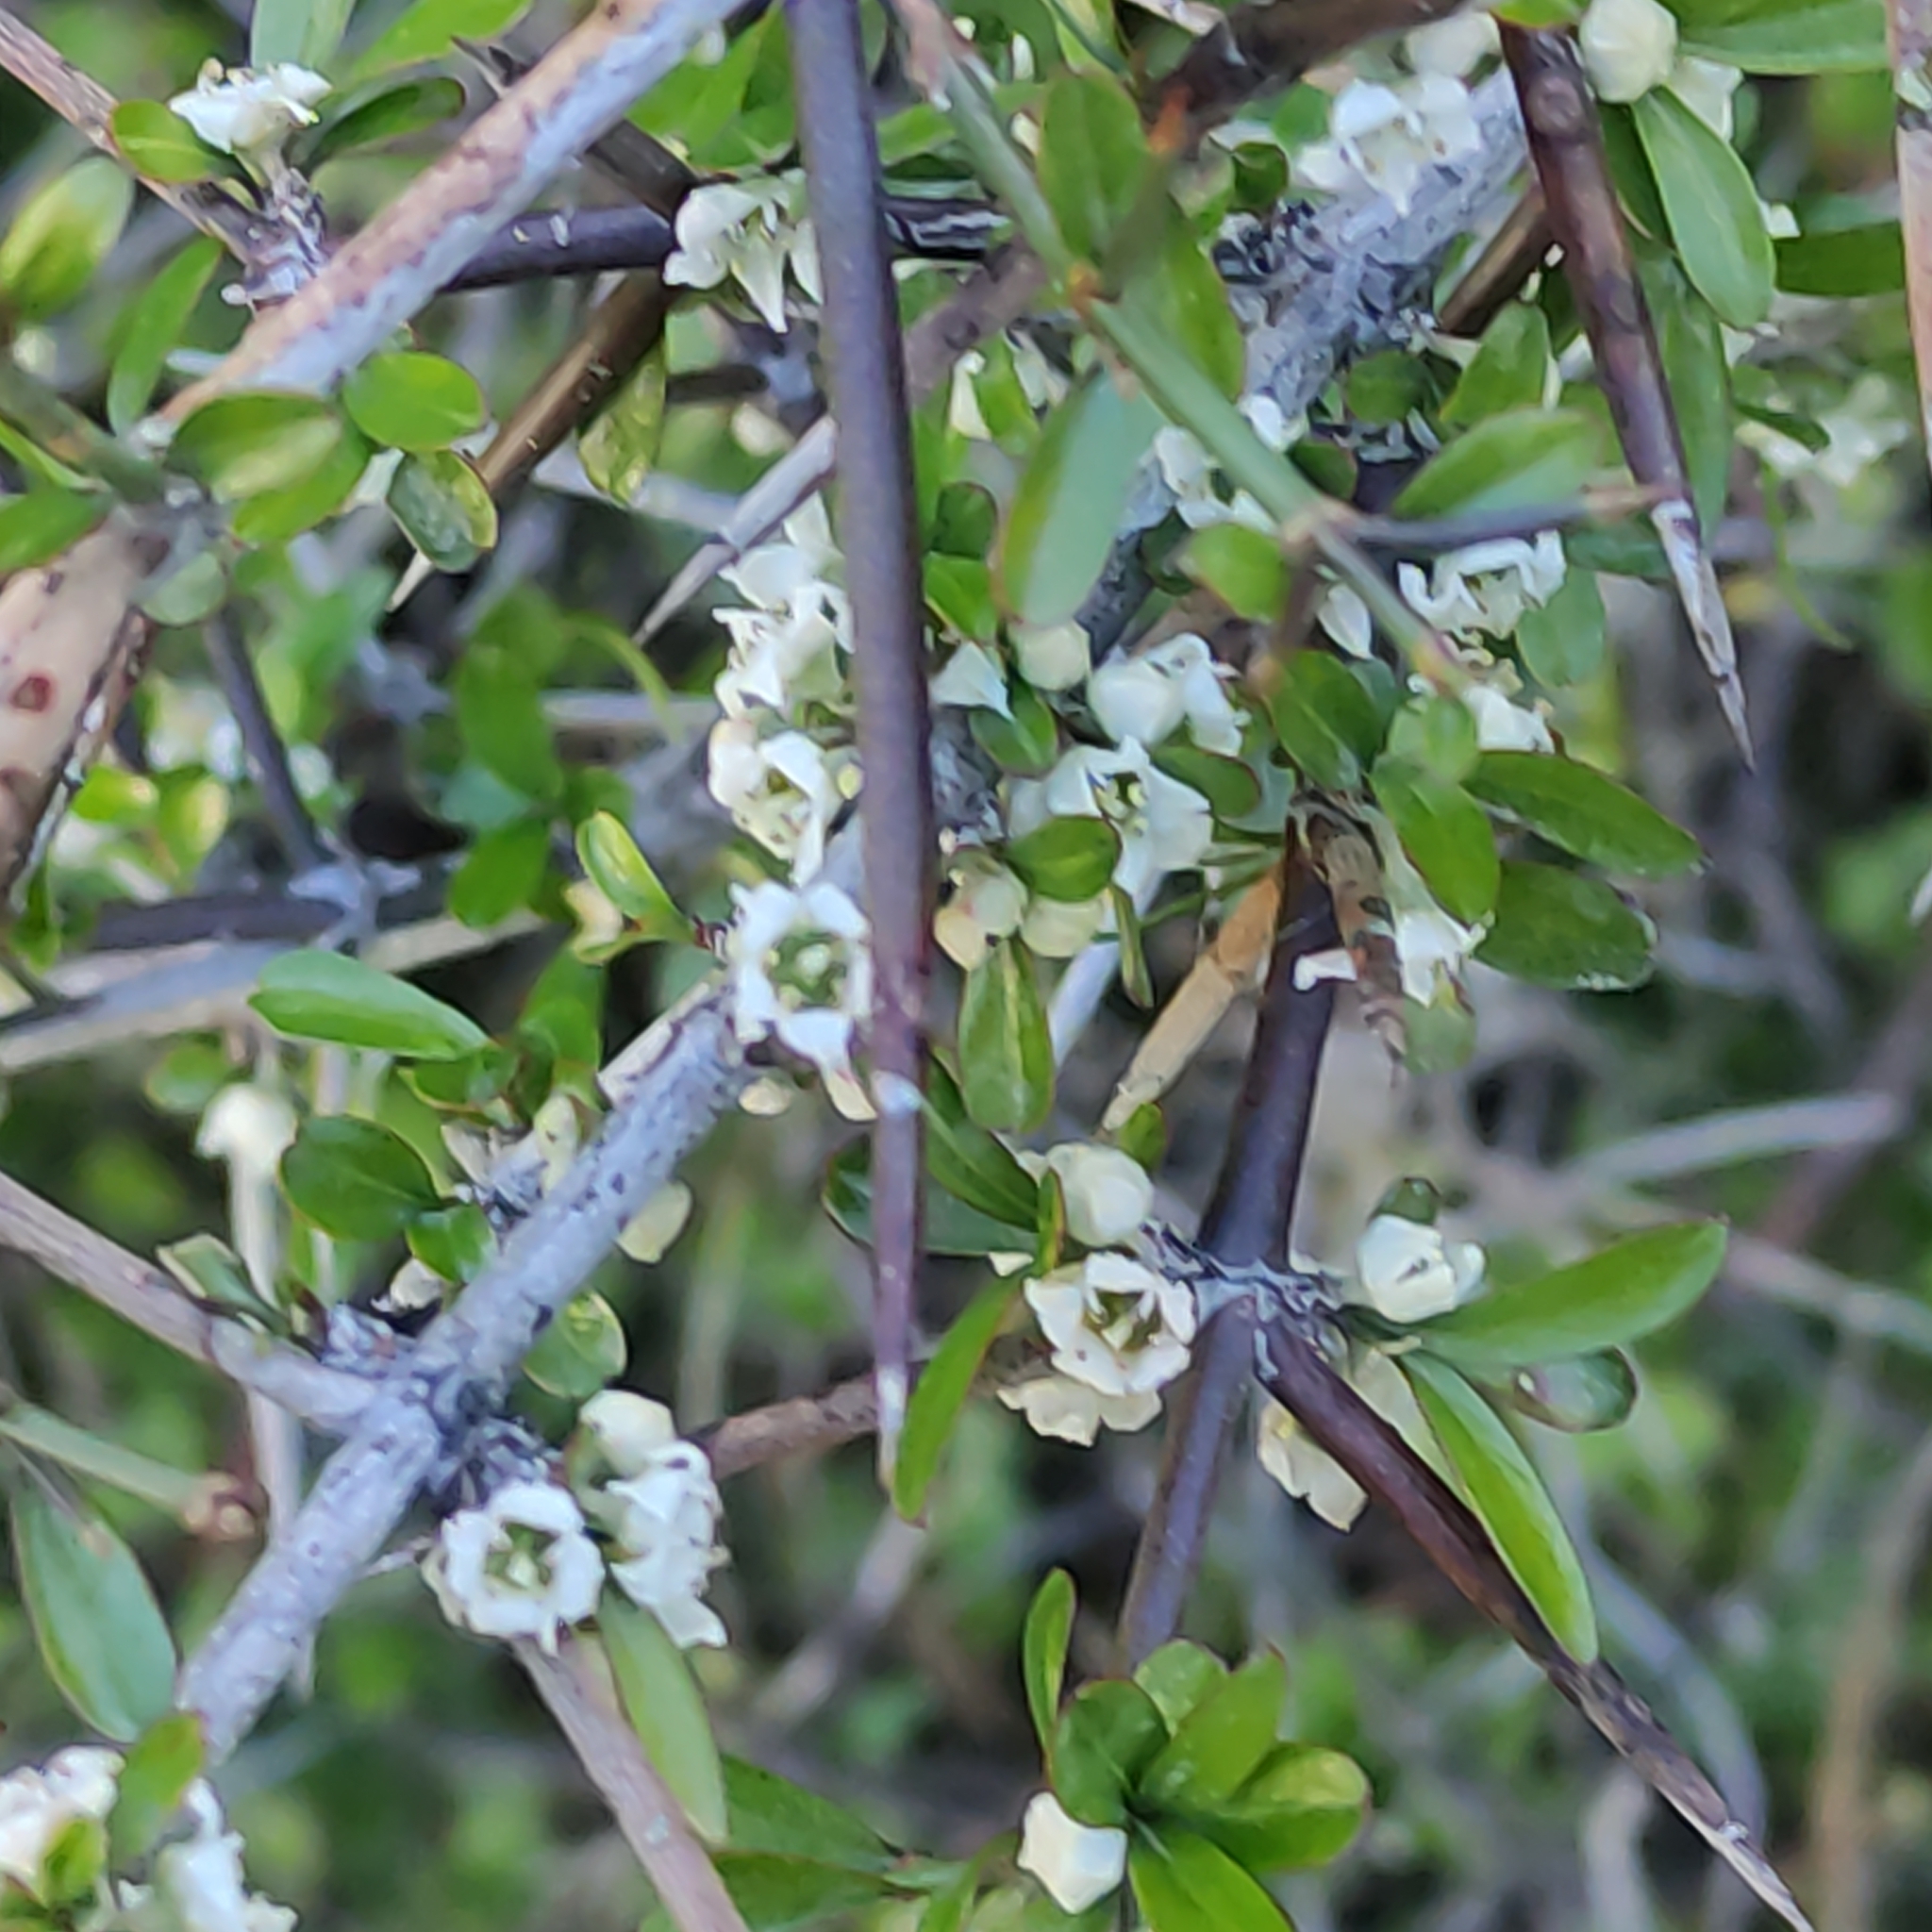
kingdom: Plantae
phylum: Tracheophyta
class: Magnoliopsida
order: Rosales
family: Rhamnaceae
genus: Discaria
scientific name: Discaria toumatou
